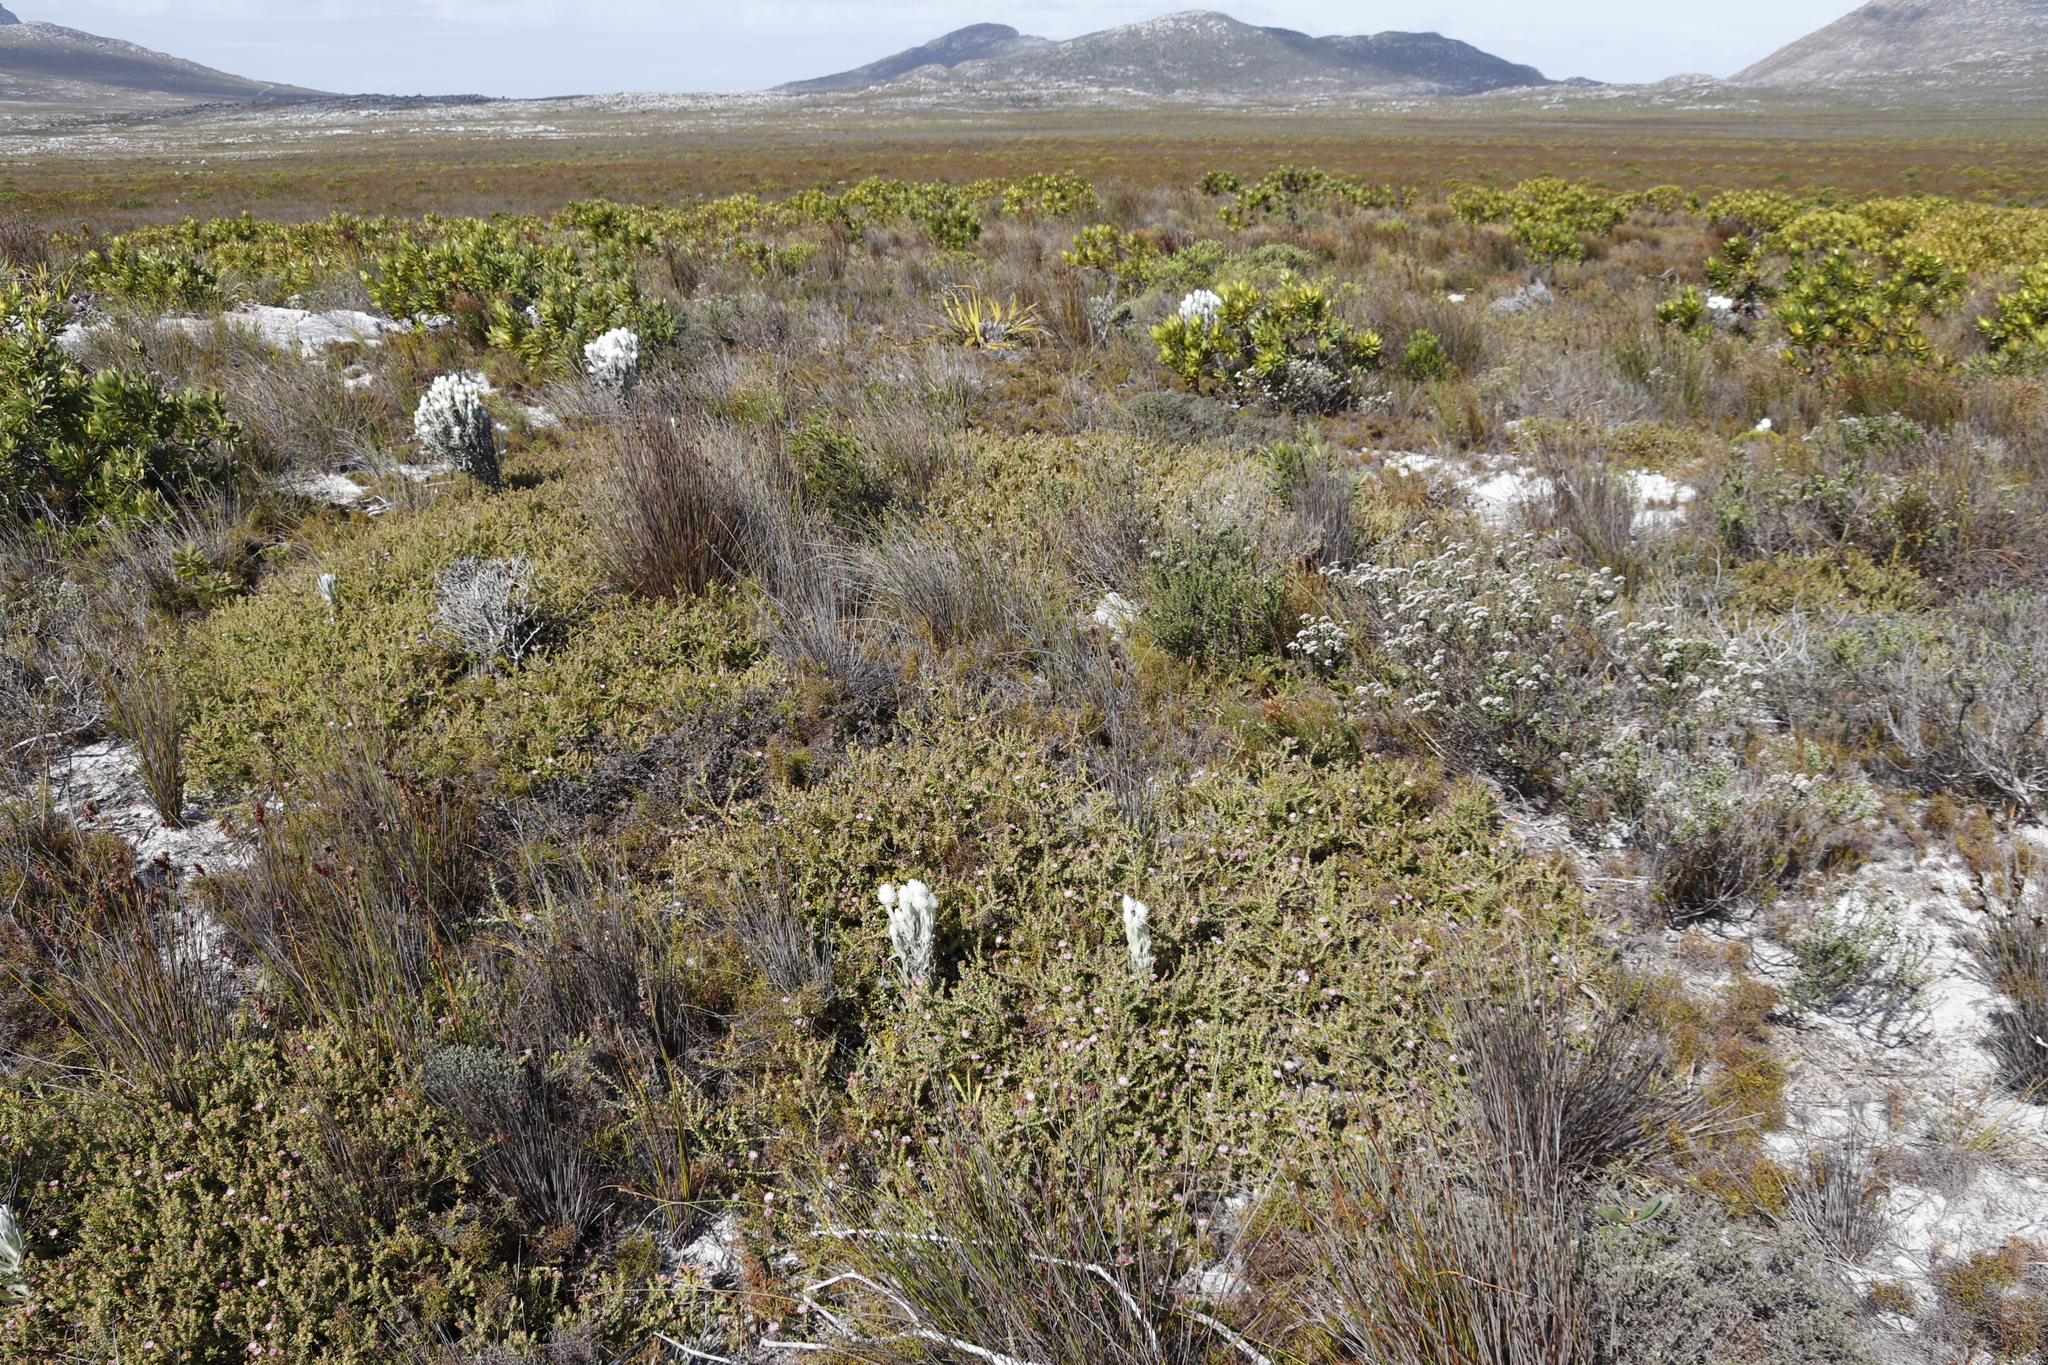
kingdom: Plantae
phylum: Tracheophyta
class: Magnoliopsida
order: Proteales
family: Proteaceae
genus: Diastella
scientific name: Diastella divaricata
